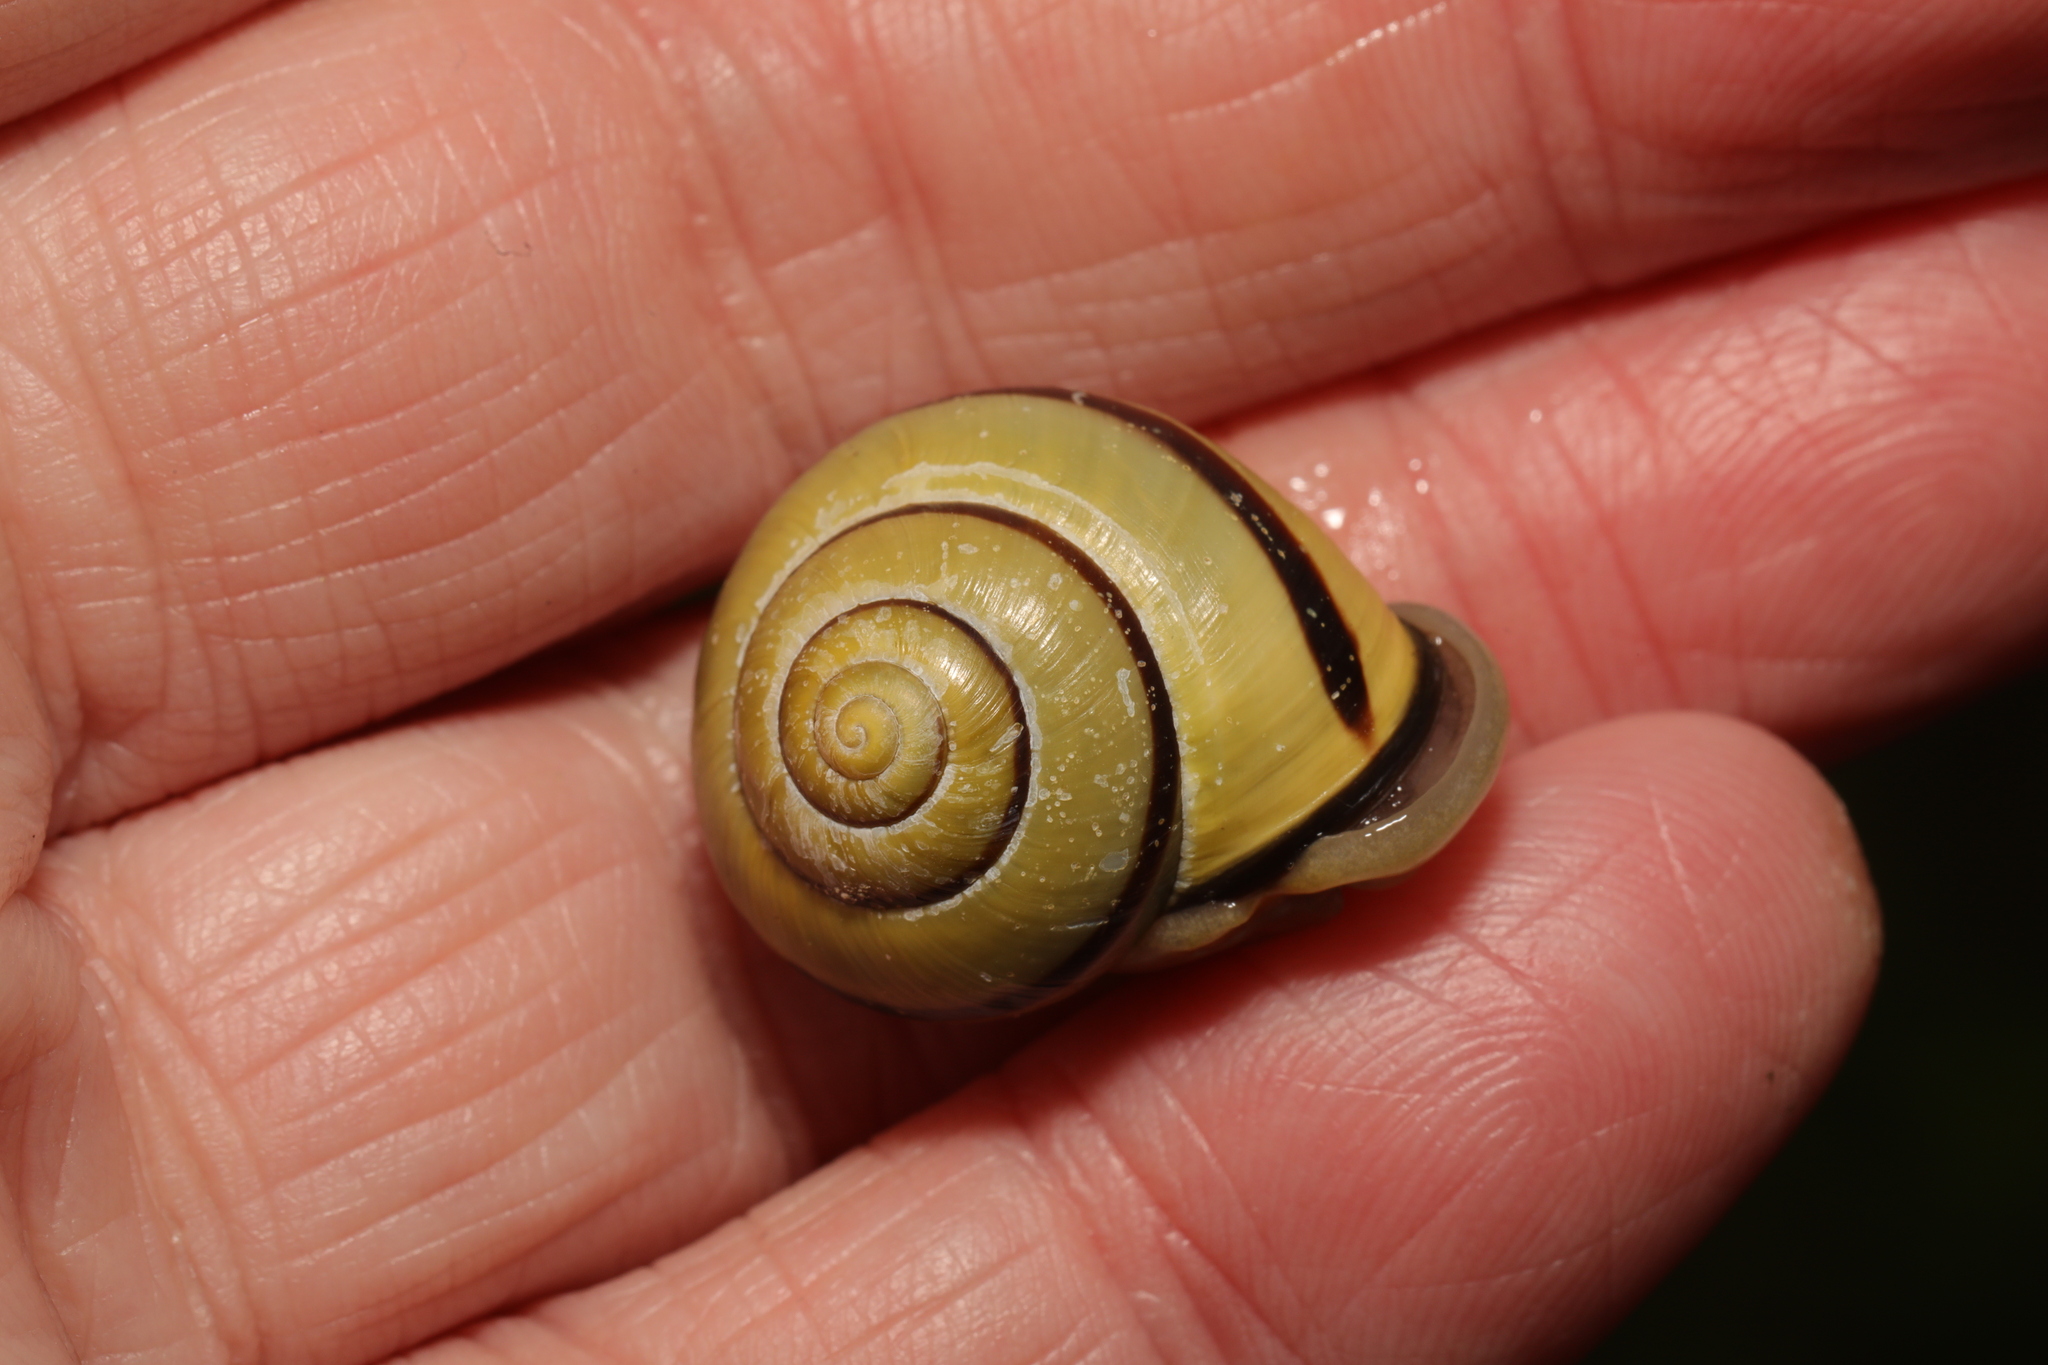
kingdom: Animalia
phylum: Mollusca
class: Gastropoda
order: Stylommatophora
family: Helicidae
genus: Cepaea
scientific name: Cepaea nemoralis
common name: Grovesnail
